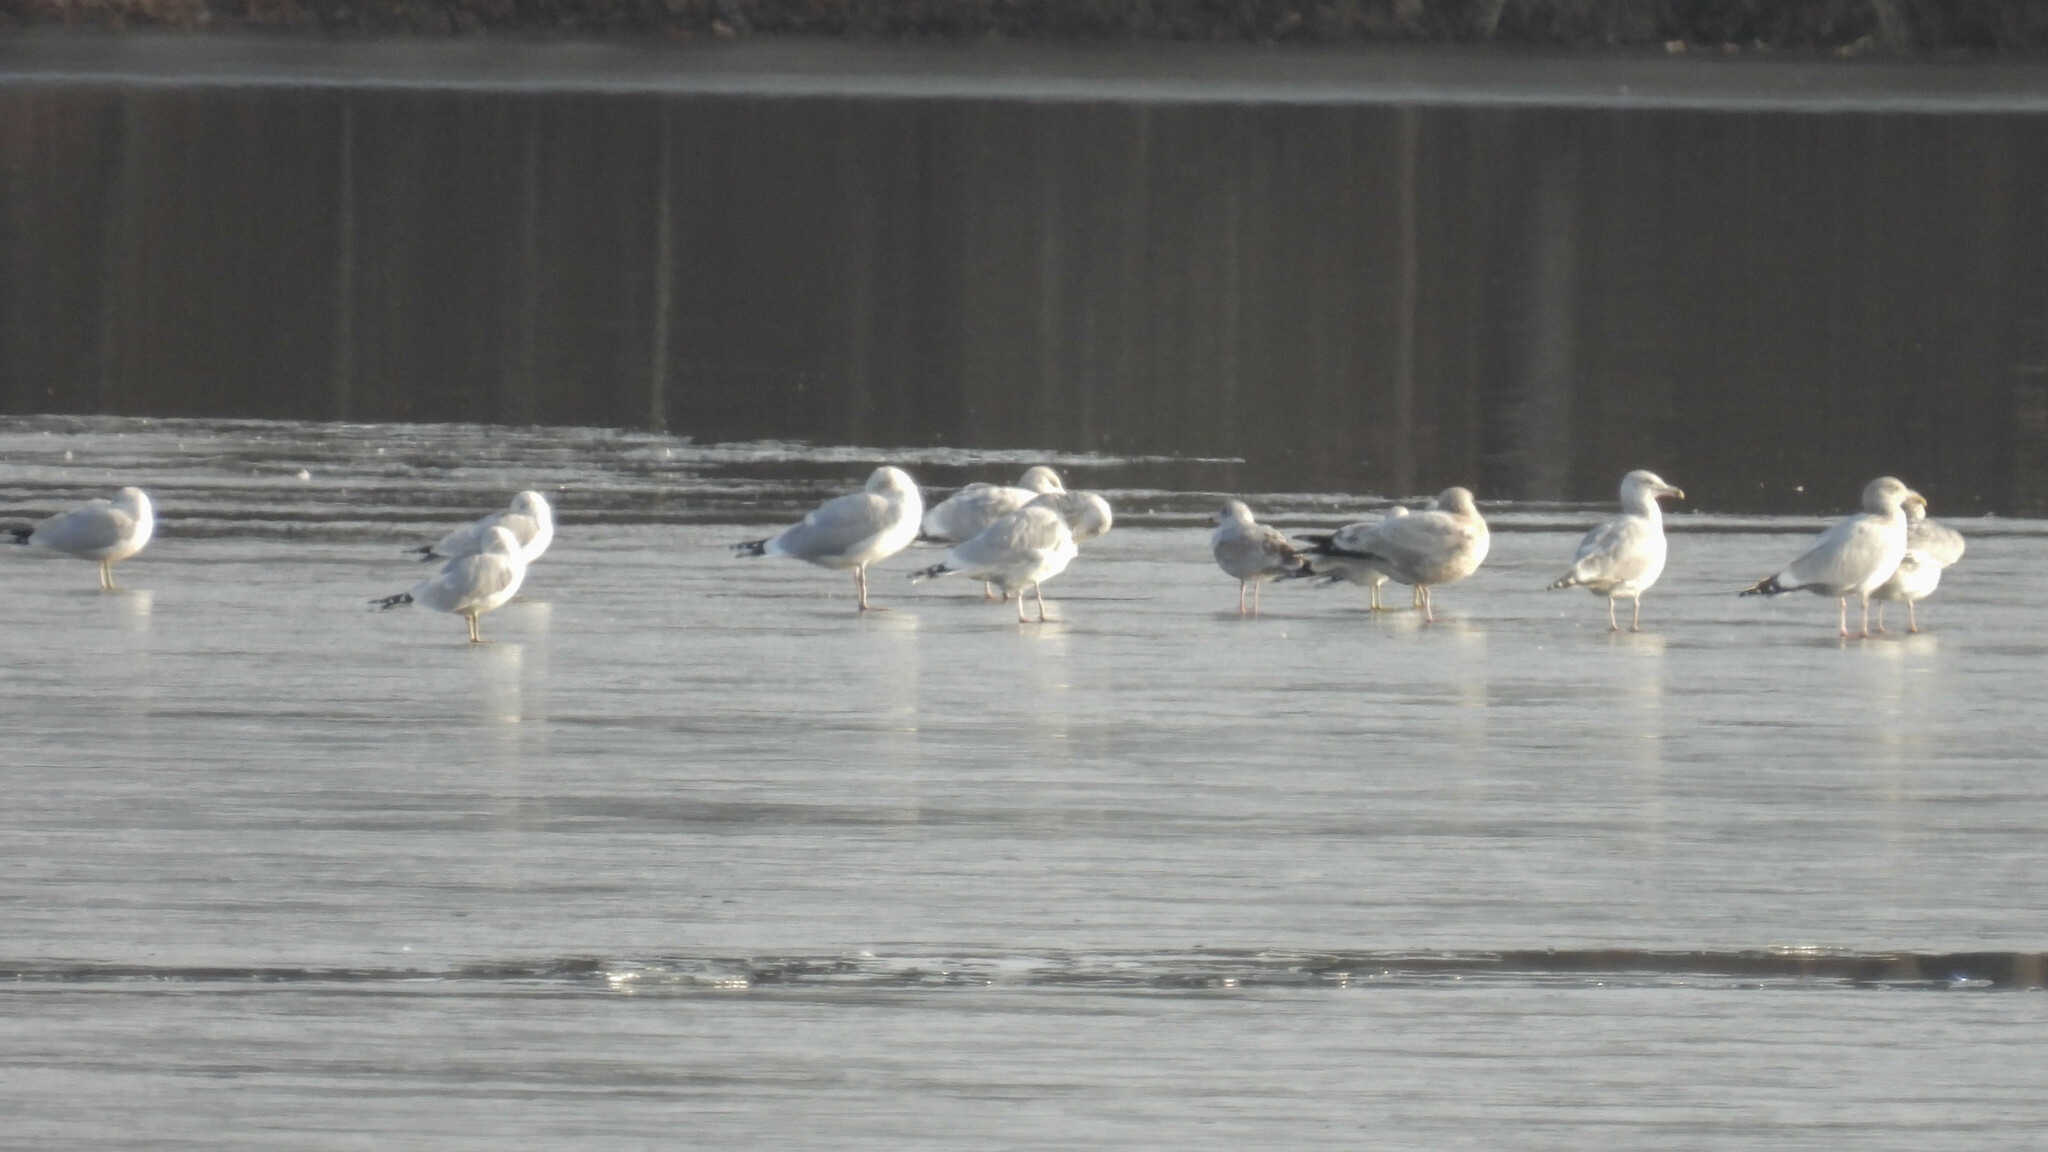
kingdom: Animalia
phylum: Chordata
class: Aves
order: Charadriiformes
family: Laridae
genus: Larus
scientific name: Larus argentatus
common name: Herring gull
